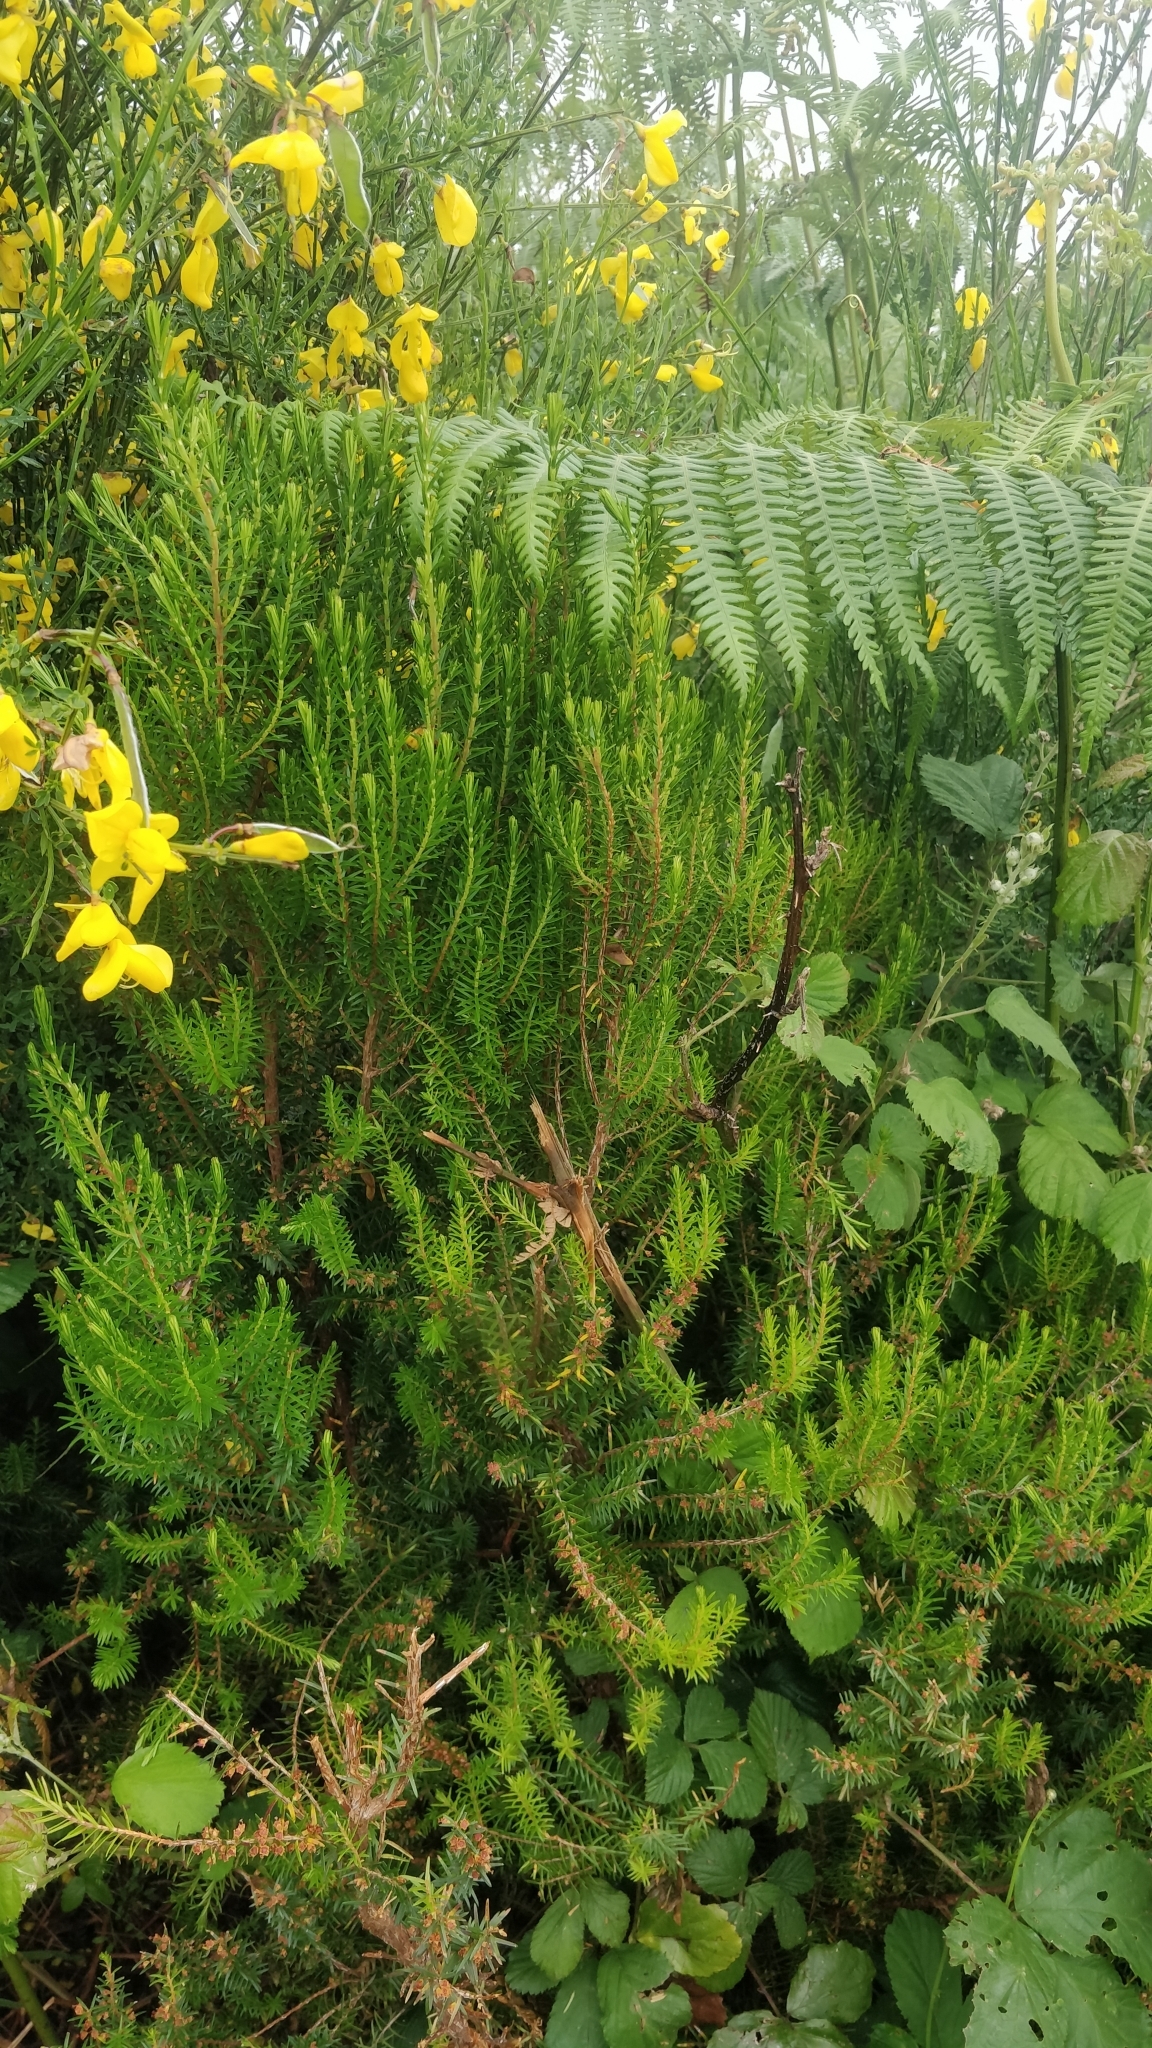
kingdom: Plantae
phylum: Tracheophyta
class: Magnoliopsida
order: Ericales
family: Ericaceae
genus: Erica
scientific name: Erica platycodon
